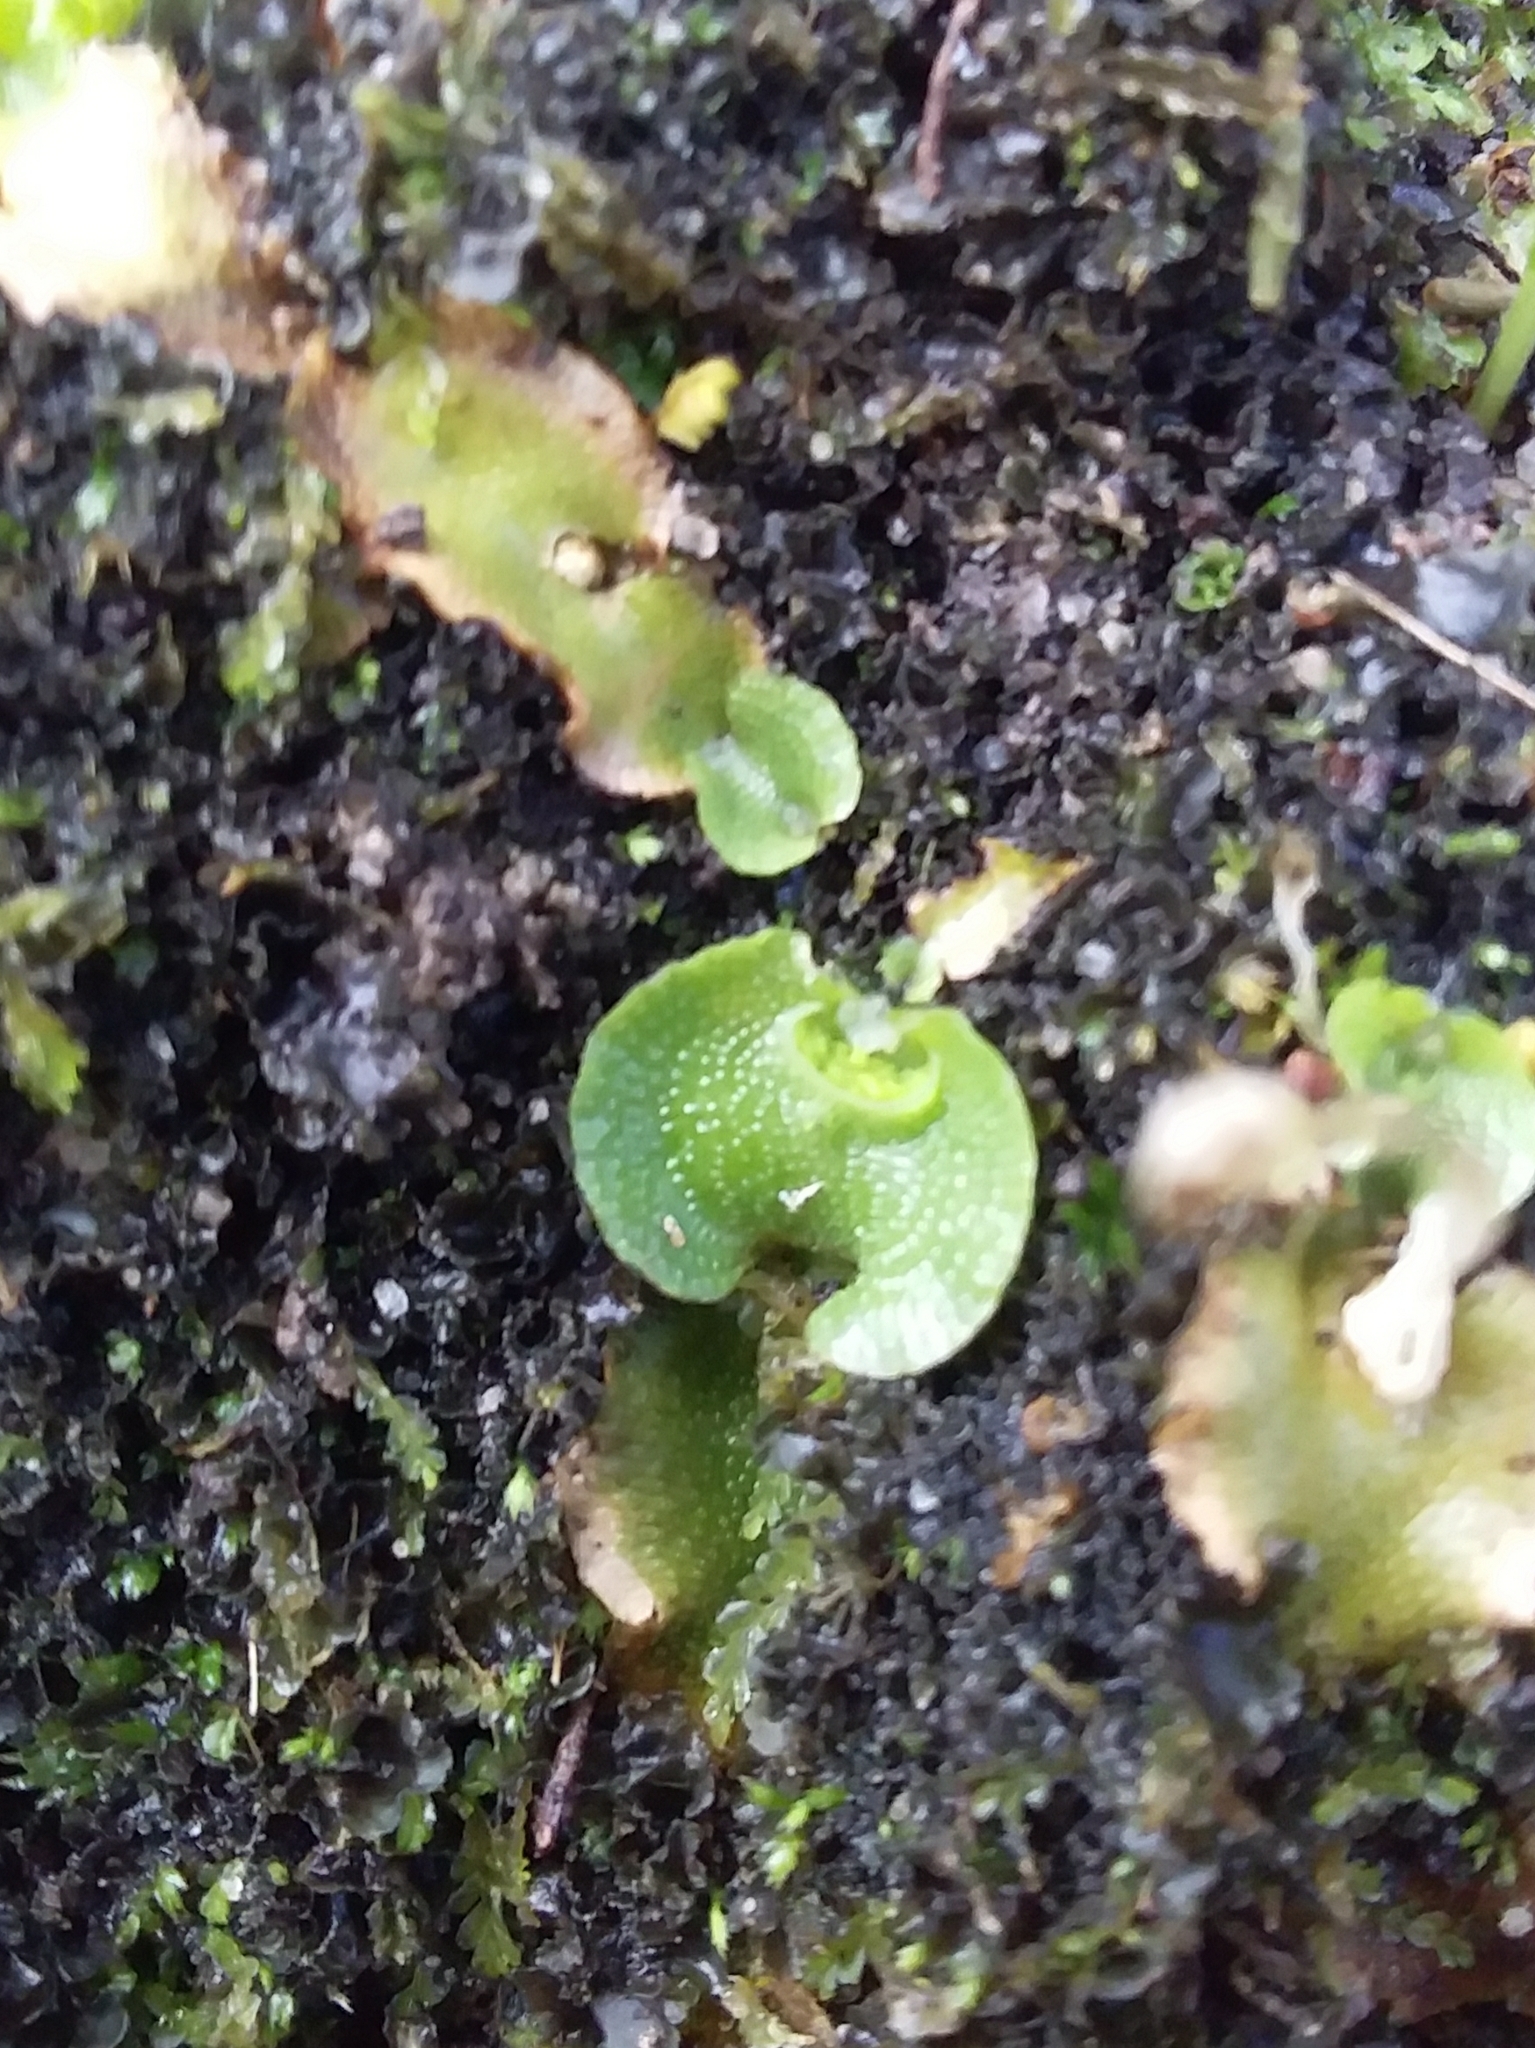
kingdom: Plantae
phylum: Marchantiophyta
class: Marchantiopsida
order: Lunulariales
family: Lunulariaceae
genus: Lunularia
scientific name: Lunularia cruciata
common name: Crescent-cup liverwort
